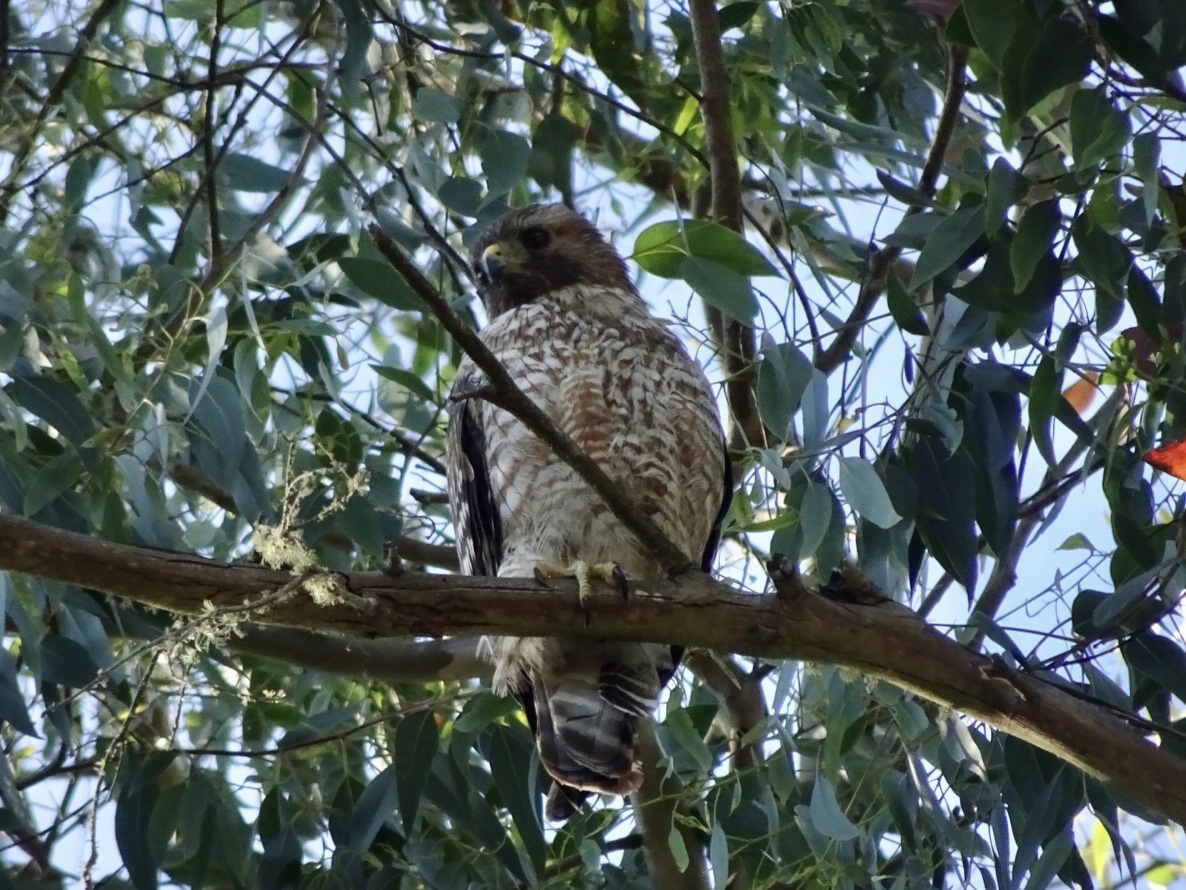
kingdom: Animalia
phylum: Chordata
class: Aves
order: Accipitriformes
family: Accipitridae
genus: Buteo
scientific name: Buteo lineatus
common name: Red-shouldered hawk
